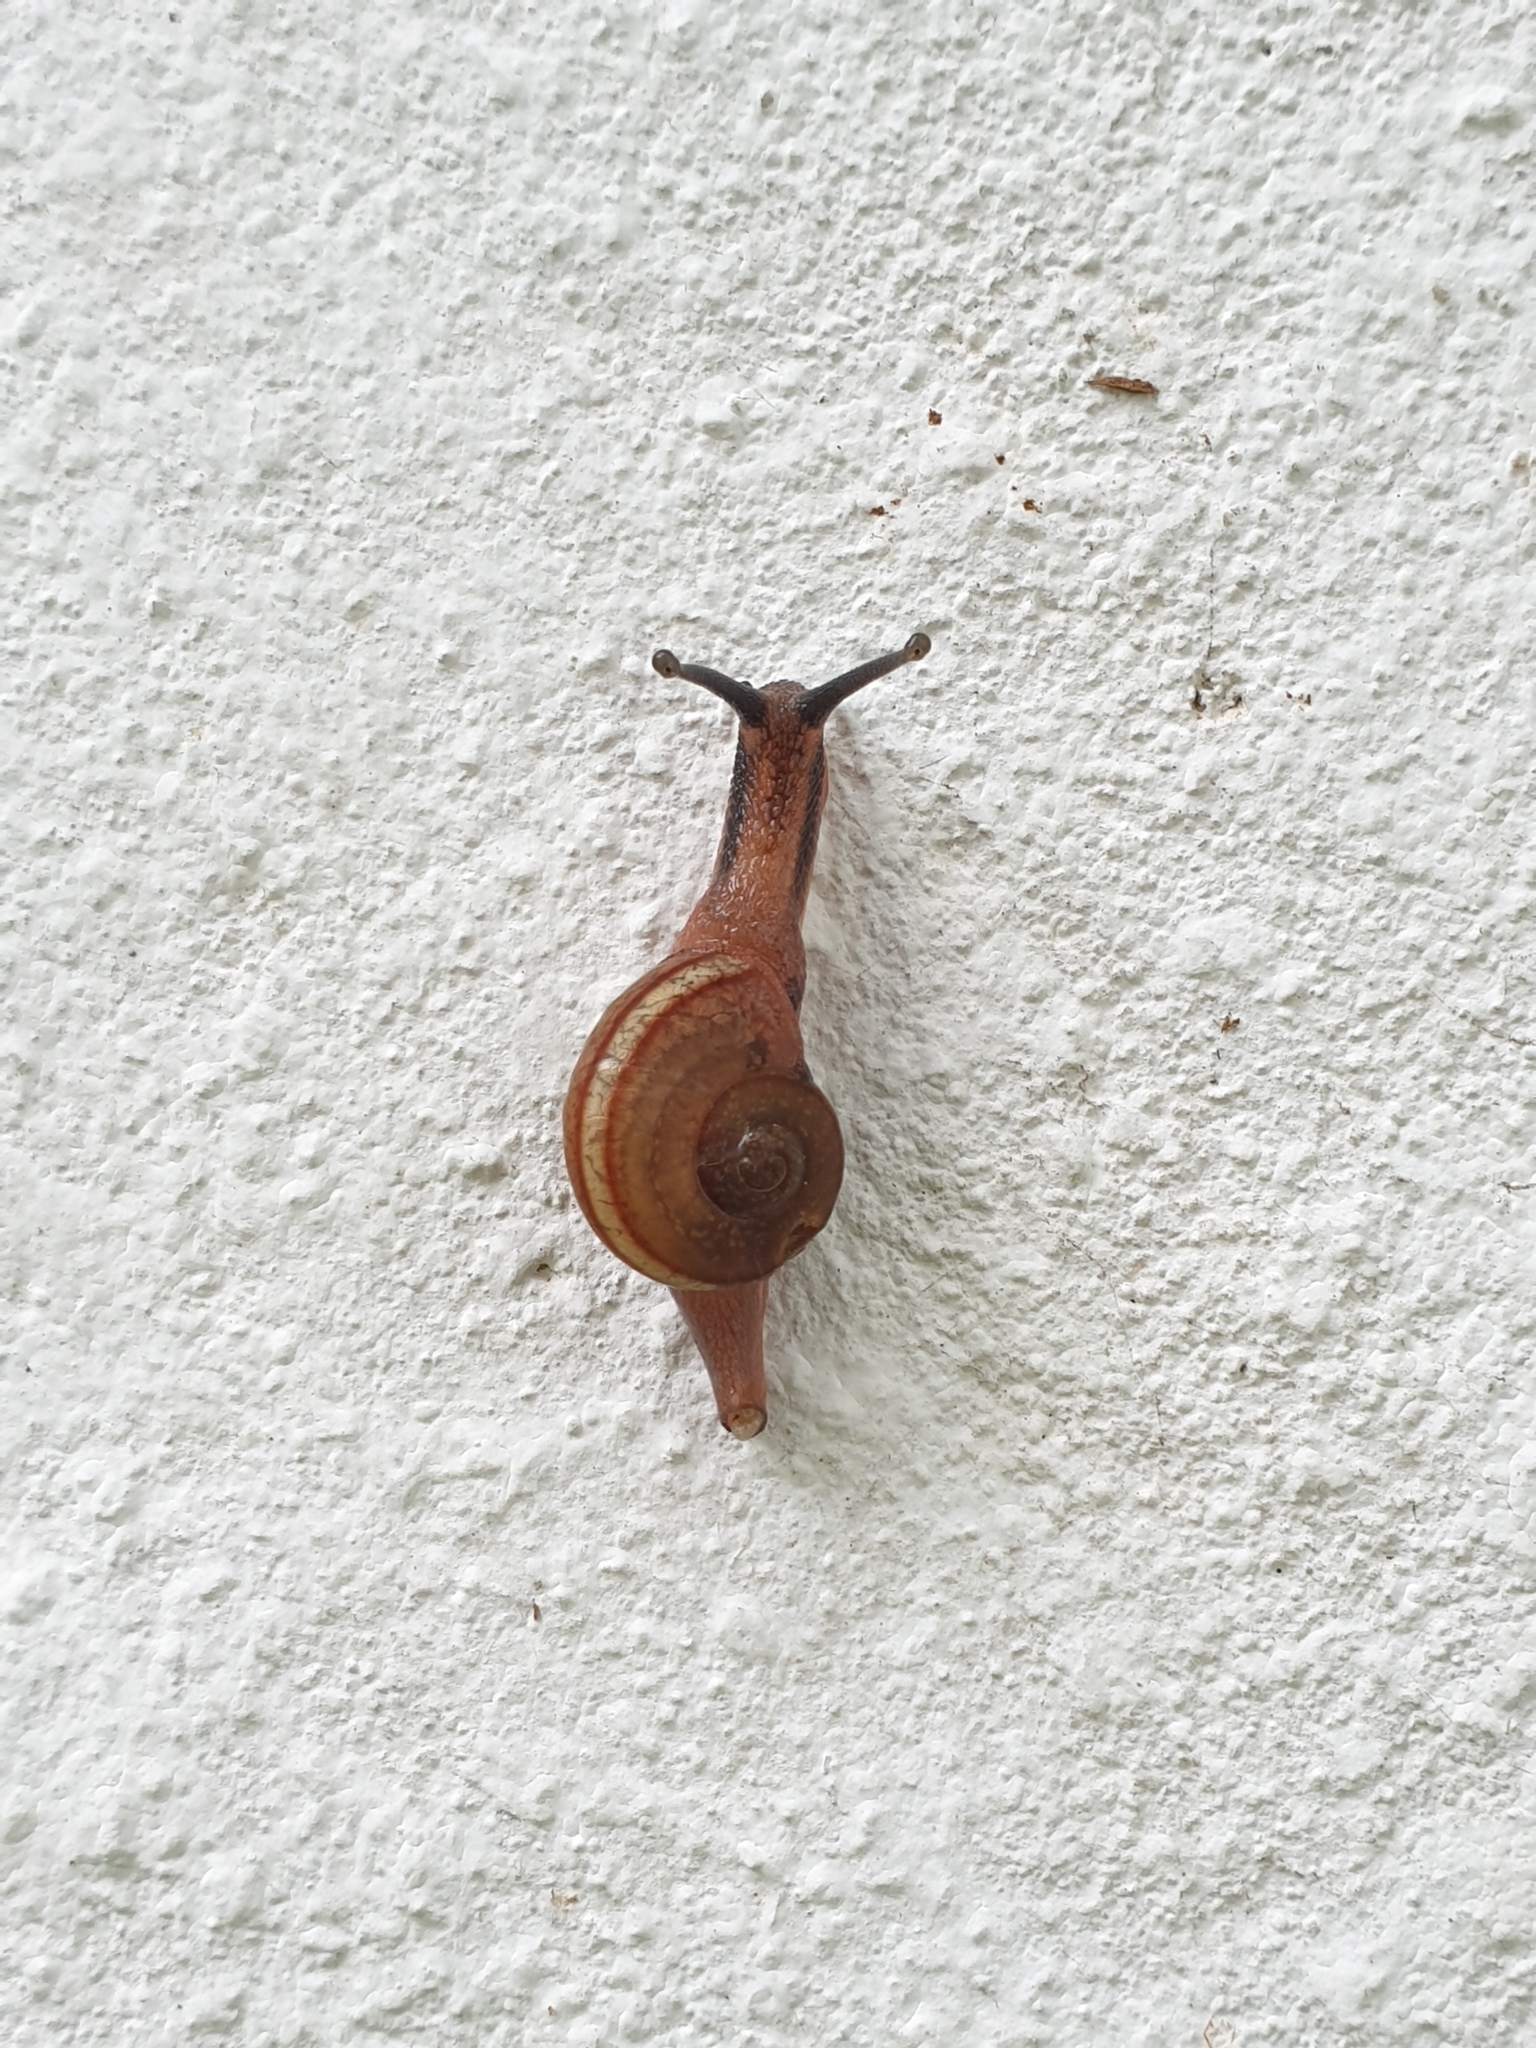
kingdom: Animalia
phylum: Mollusca
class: Gastropoda
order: Stylommatophora
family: Ariophantidae
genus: Ariophanta
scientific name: Ariophanta exilis
